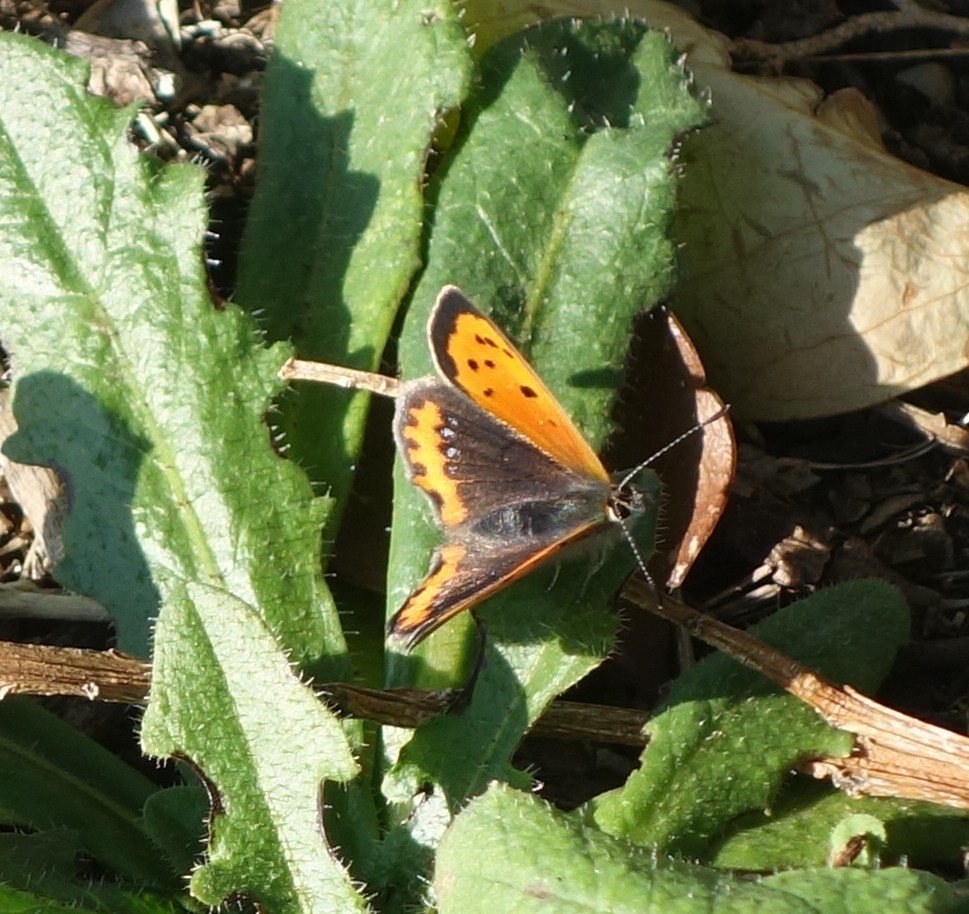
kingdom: Animalia
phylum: Arthropoda
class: Insecta
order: Lepidoptera
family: Lycaenidae
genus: Lycaena
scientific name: Lycaena phlaeas
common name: Small copper
